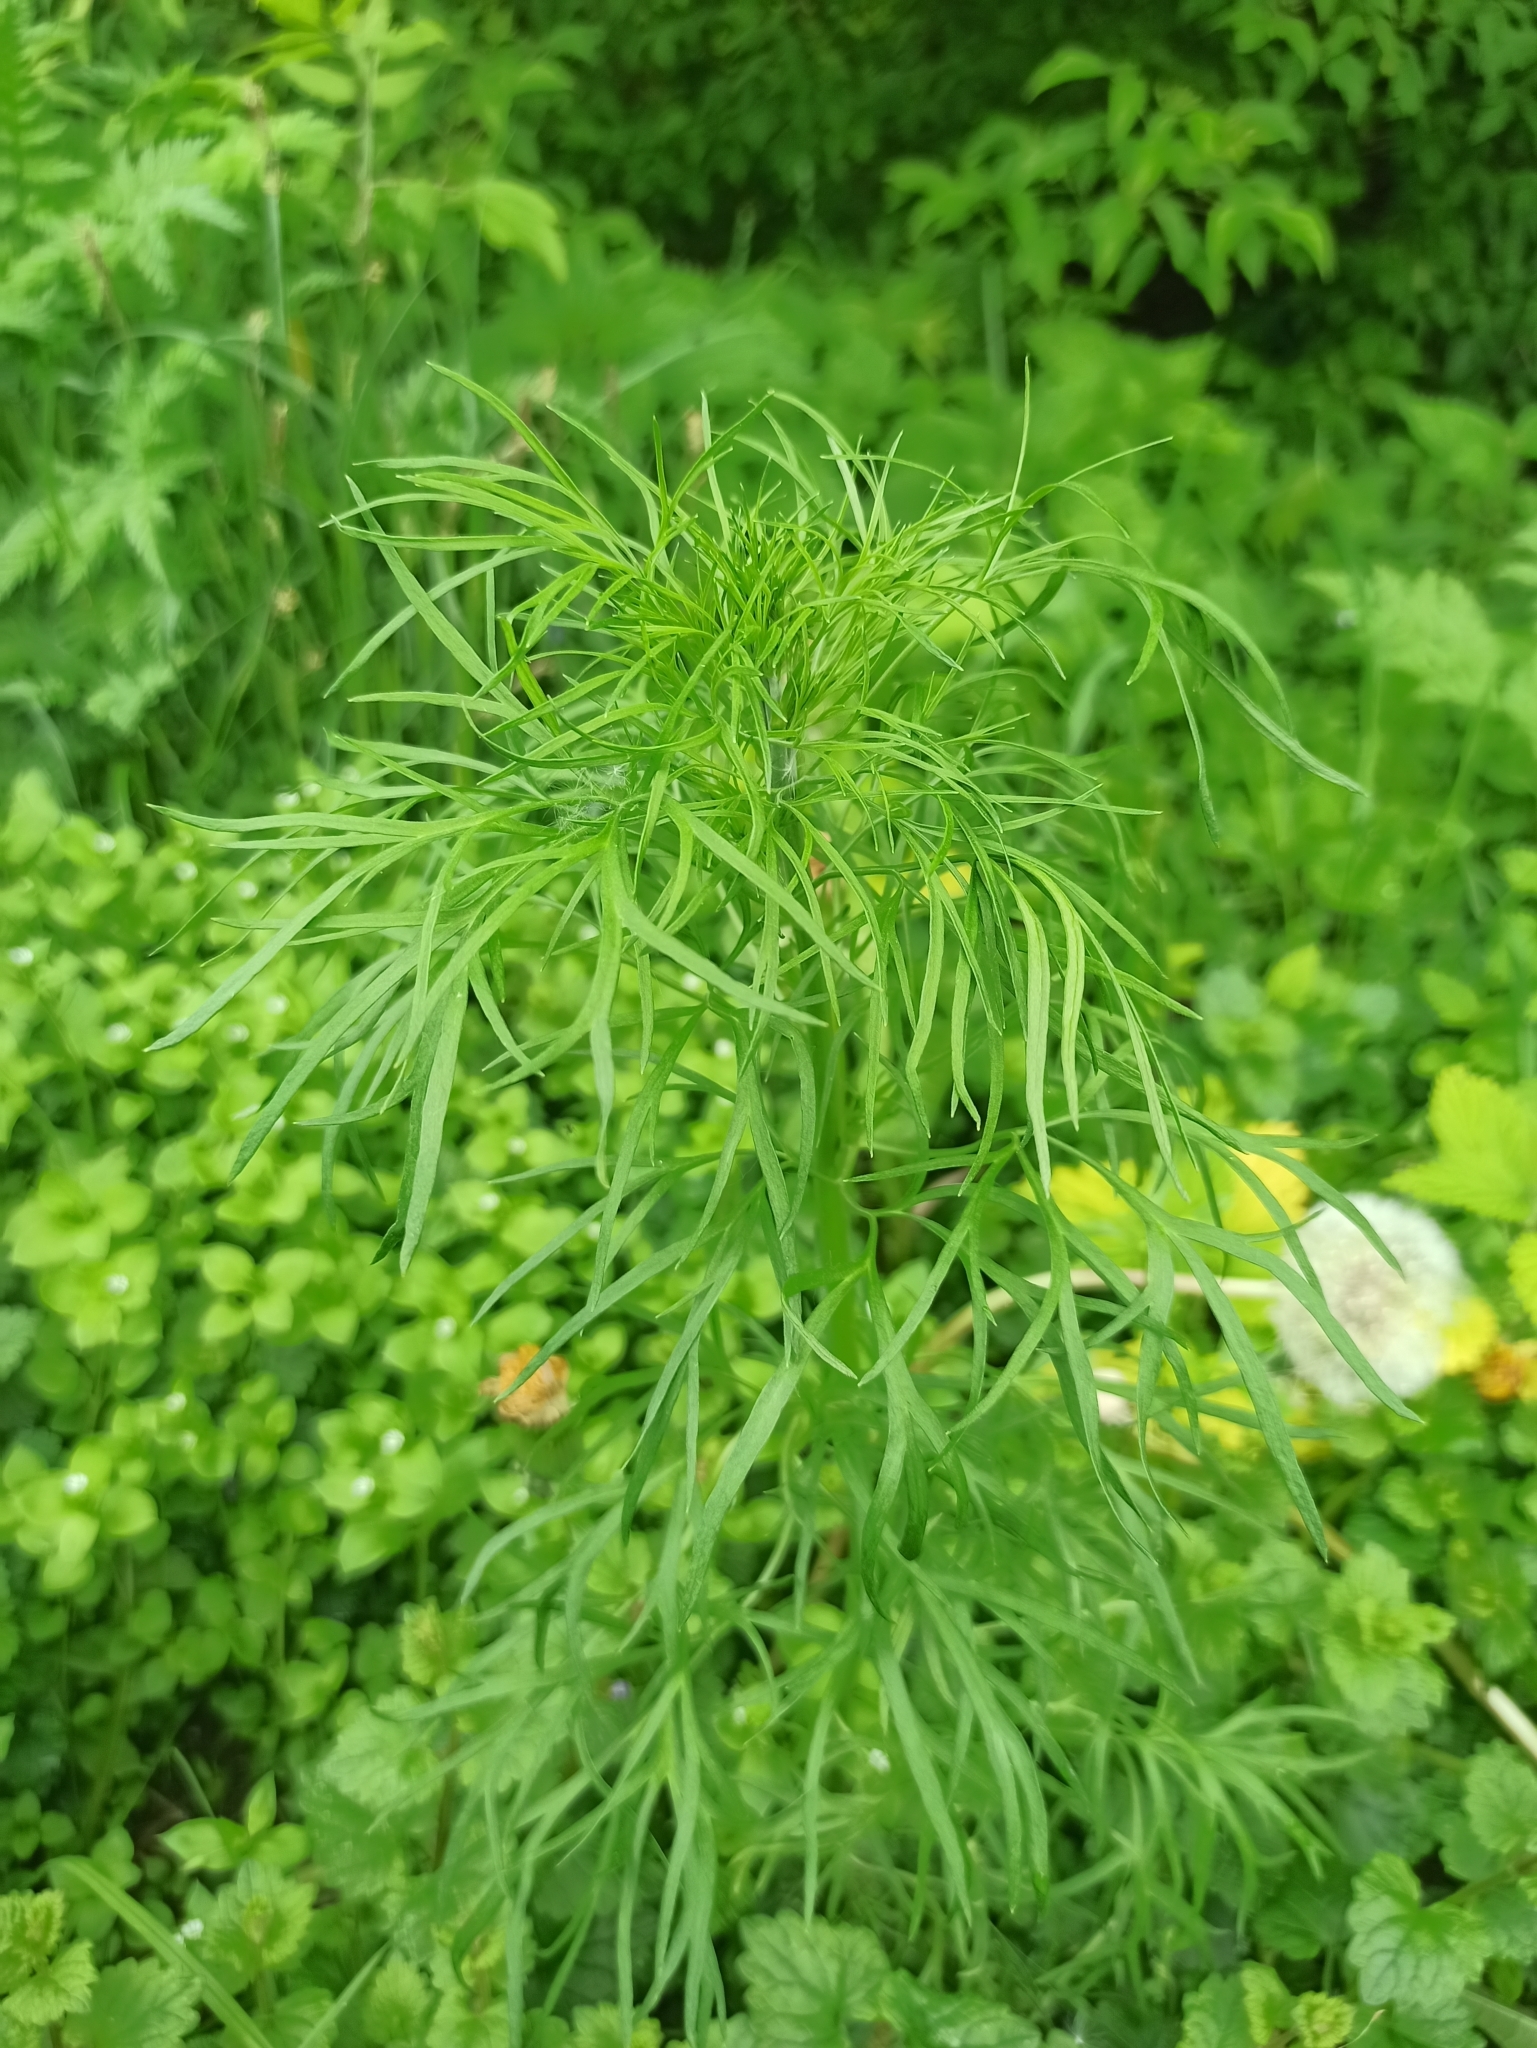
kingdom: Plantae
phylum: Tracheophyta
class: Magnoliopsida
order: Ranunculales
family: Ranunculaceae
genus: Delphinium
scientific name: Delphinium consolida
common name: Branching larkspur
